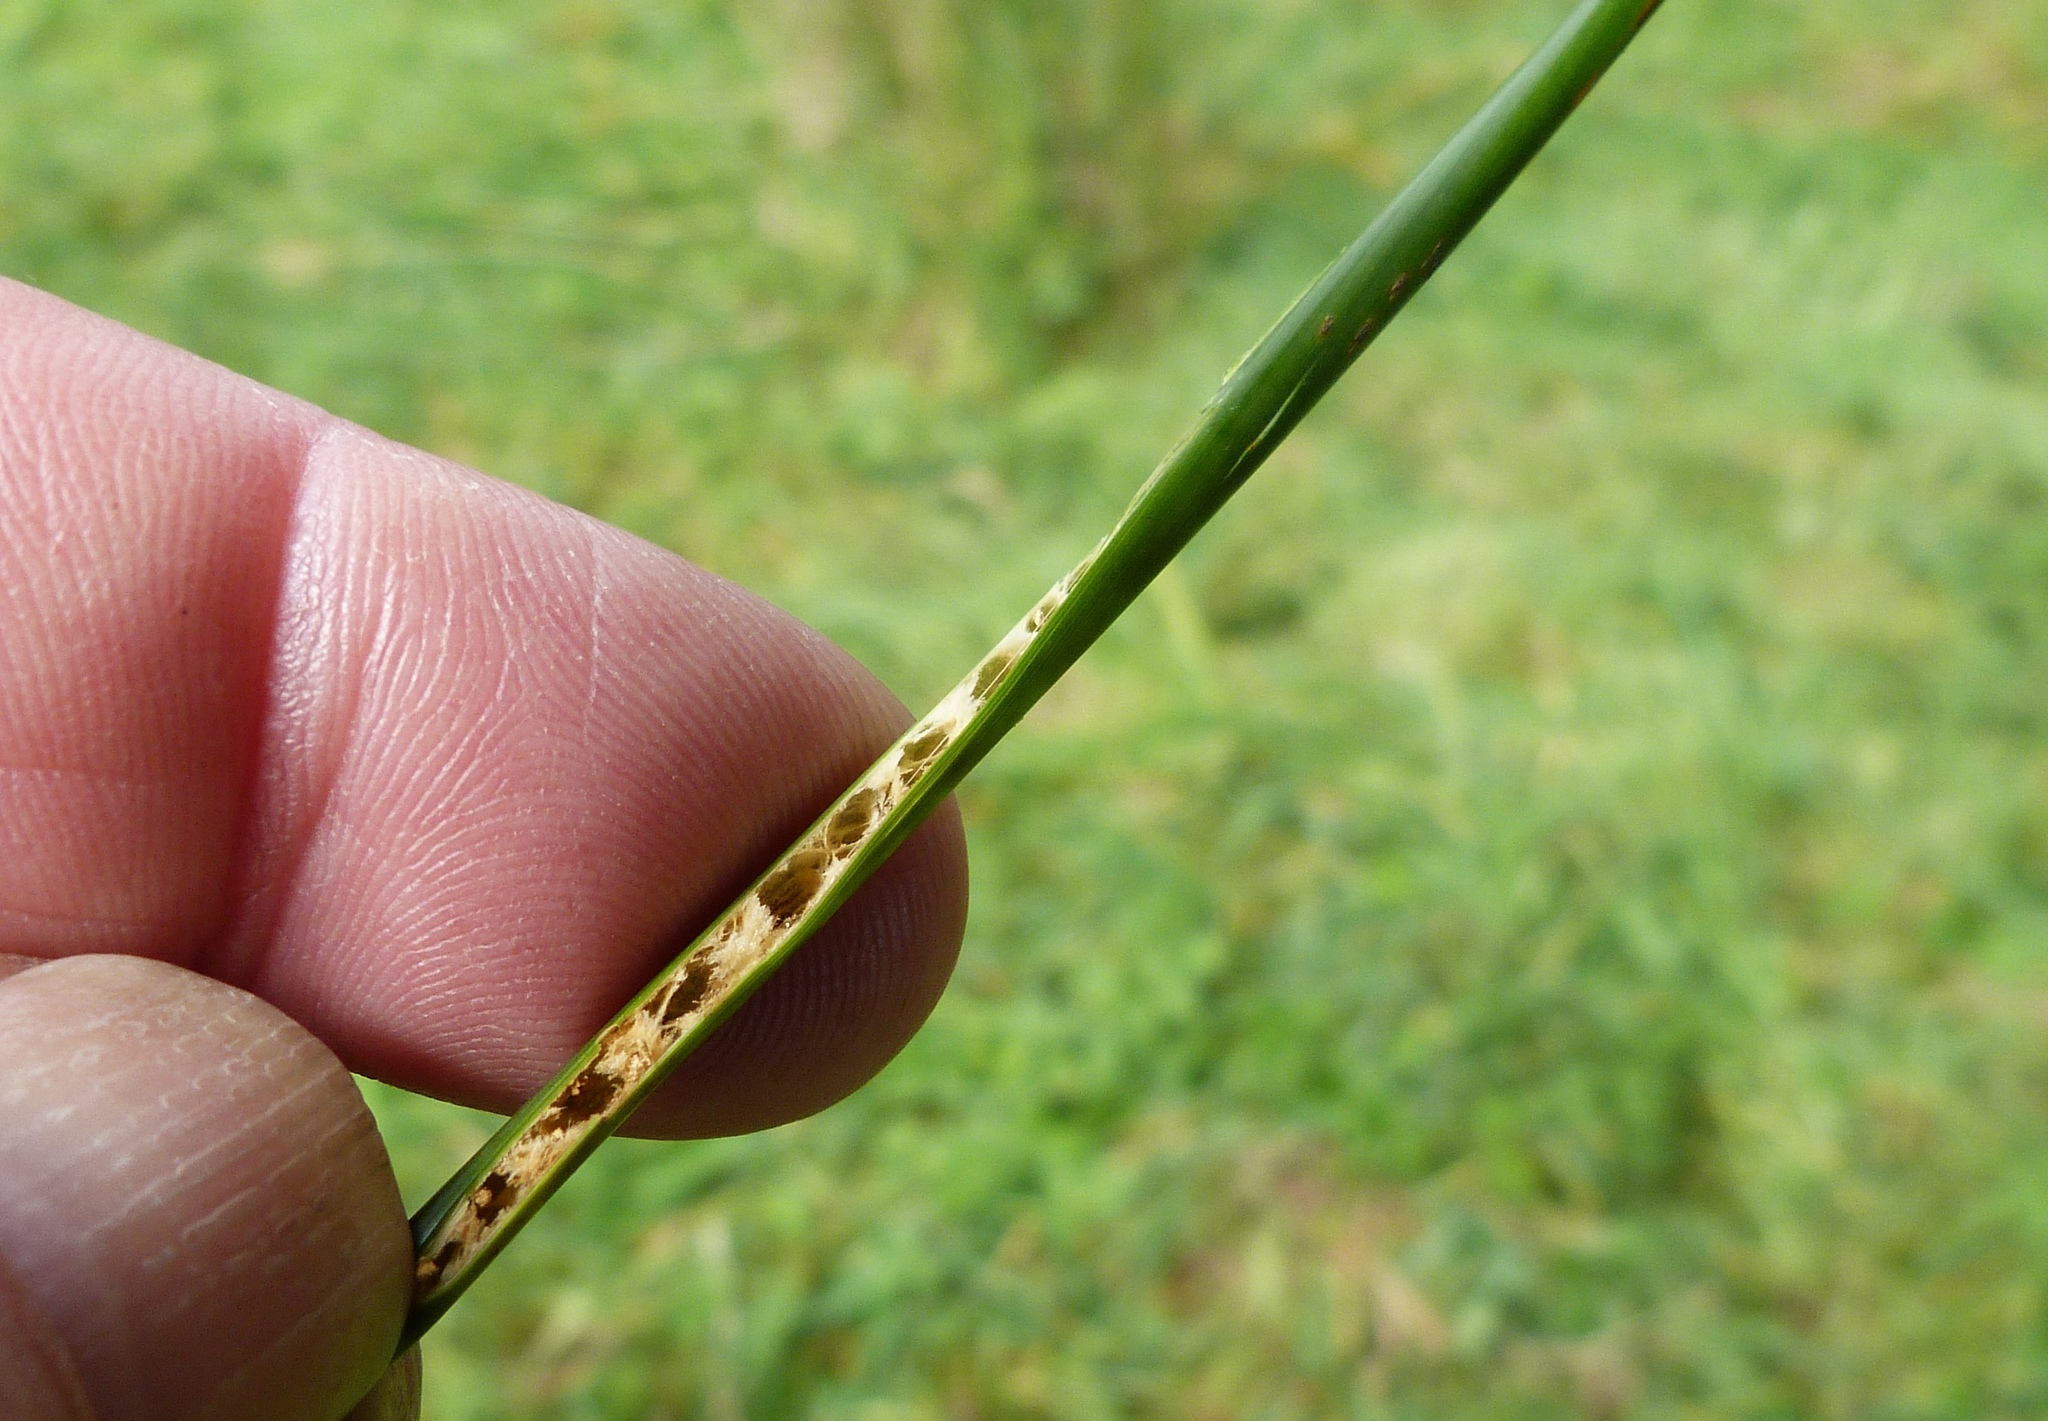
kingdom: Plantae
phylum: Tracheophyta
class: Liliopsida
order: Poales
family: Juncaceae
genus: Juncus
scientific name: Juncus edgariae
